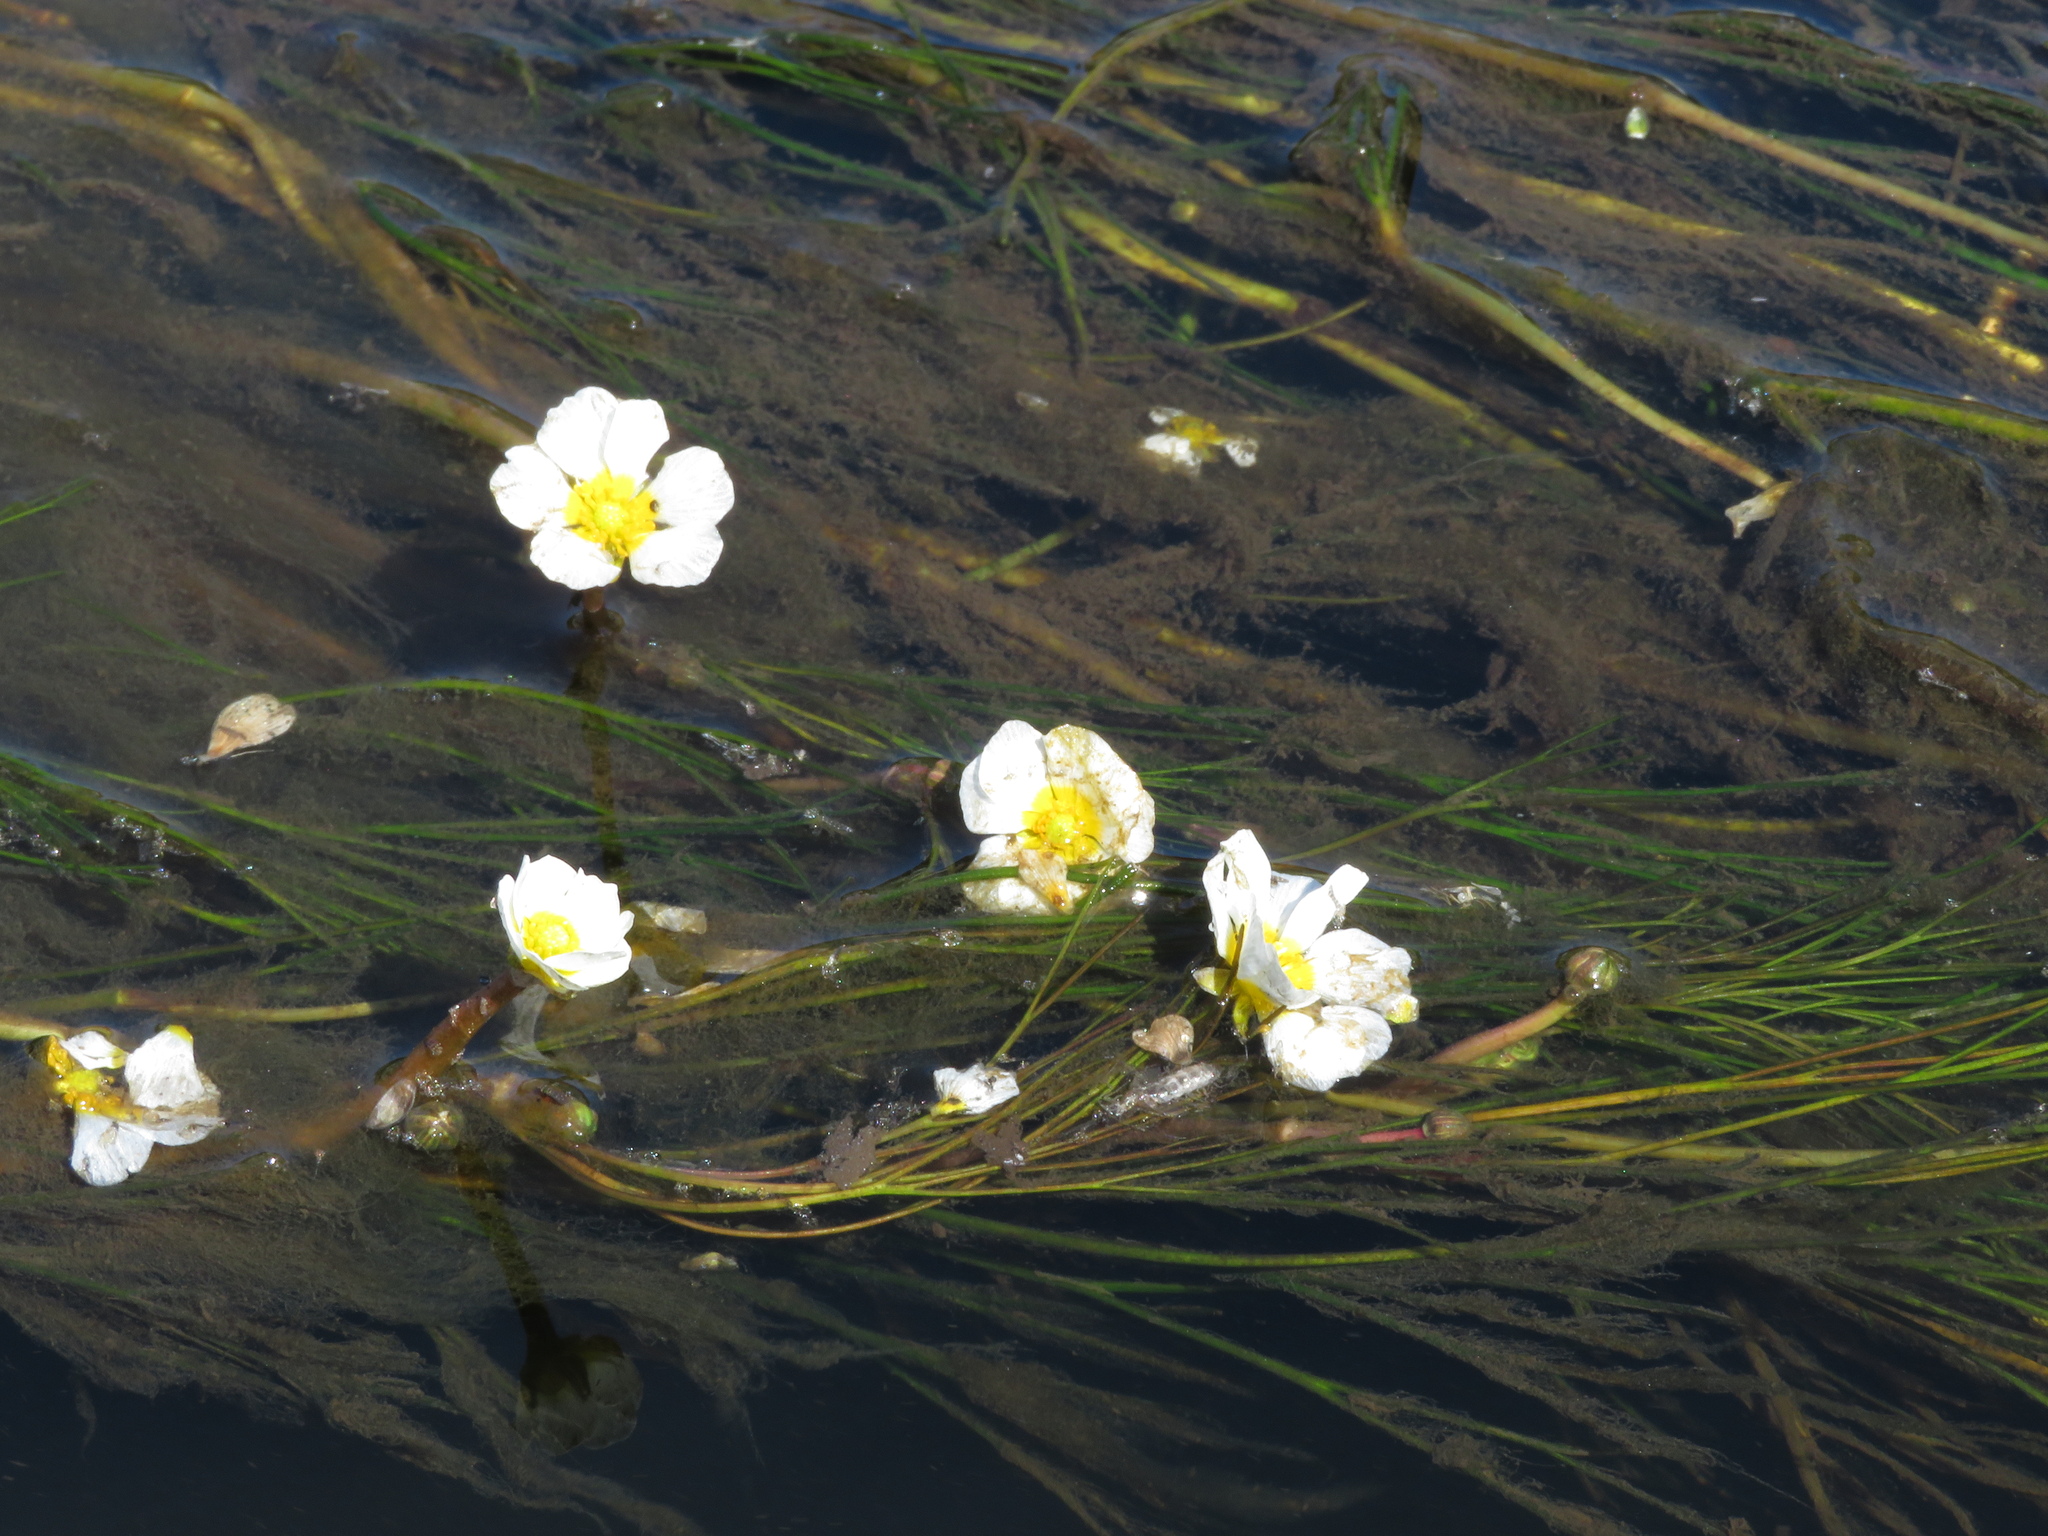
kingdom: Plantae
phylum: Tracheophyta
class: Magnoliopsida
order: Ranunculales
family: Ranunculaceae
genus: Ranunculus
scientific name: Ranunculus fluitans
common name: River water-crowfoot
